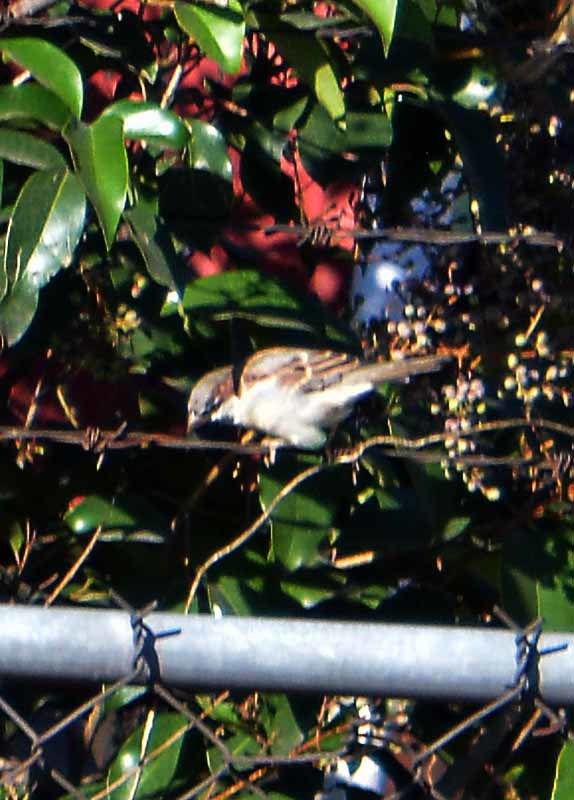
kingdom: Animalia
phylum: Chordata
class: Aves
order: Passeriformes
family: Passeridae
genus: Passer
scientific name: Passer domesticus
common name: House sparrow
